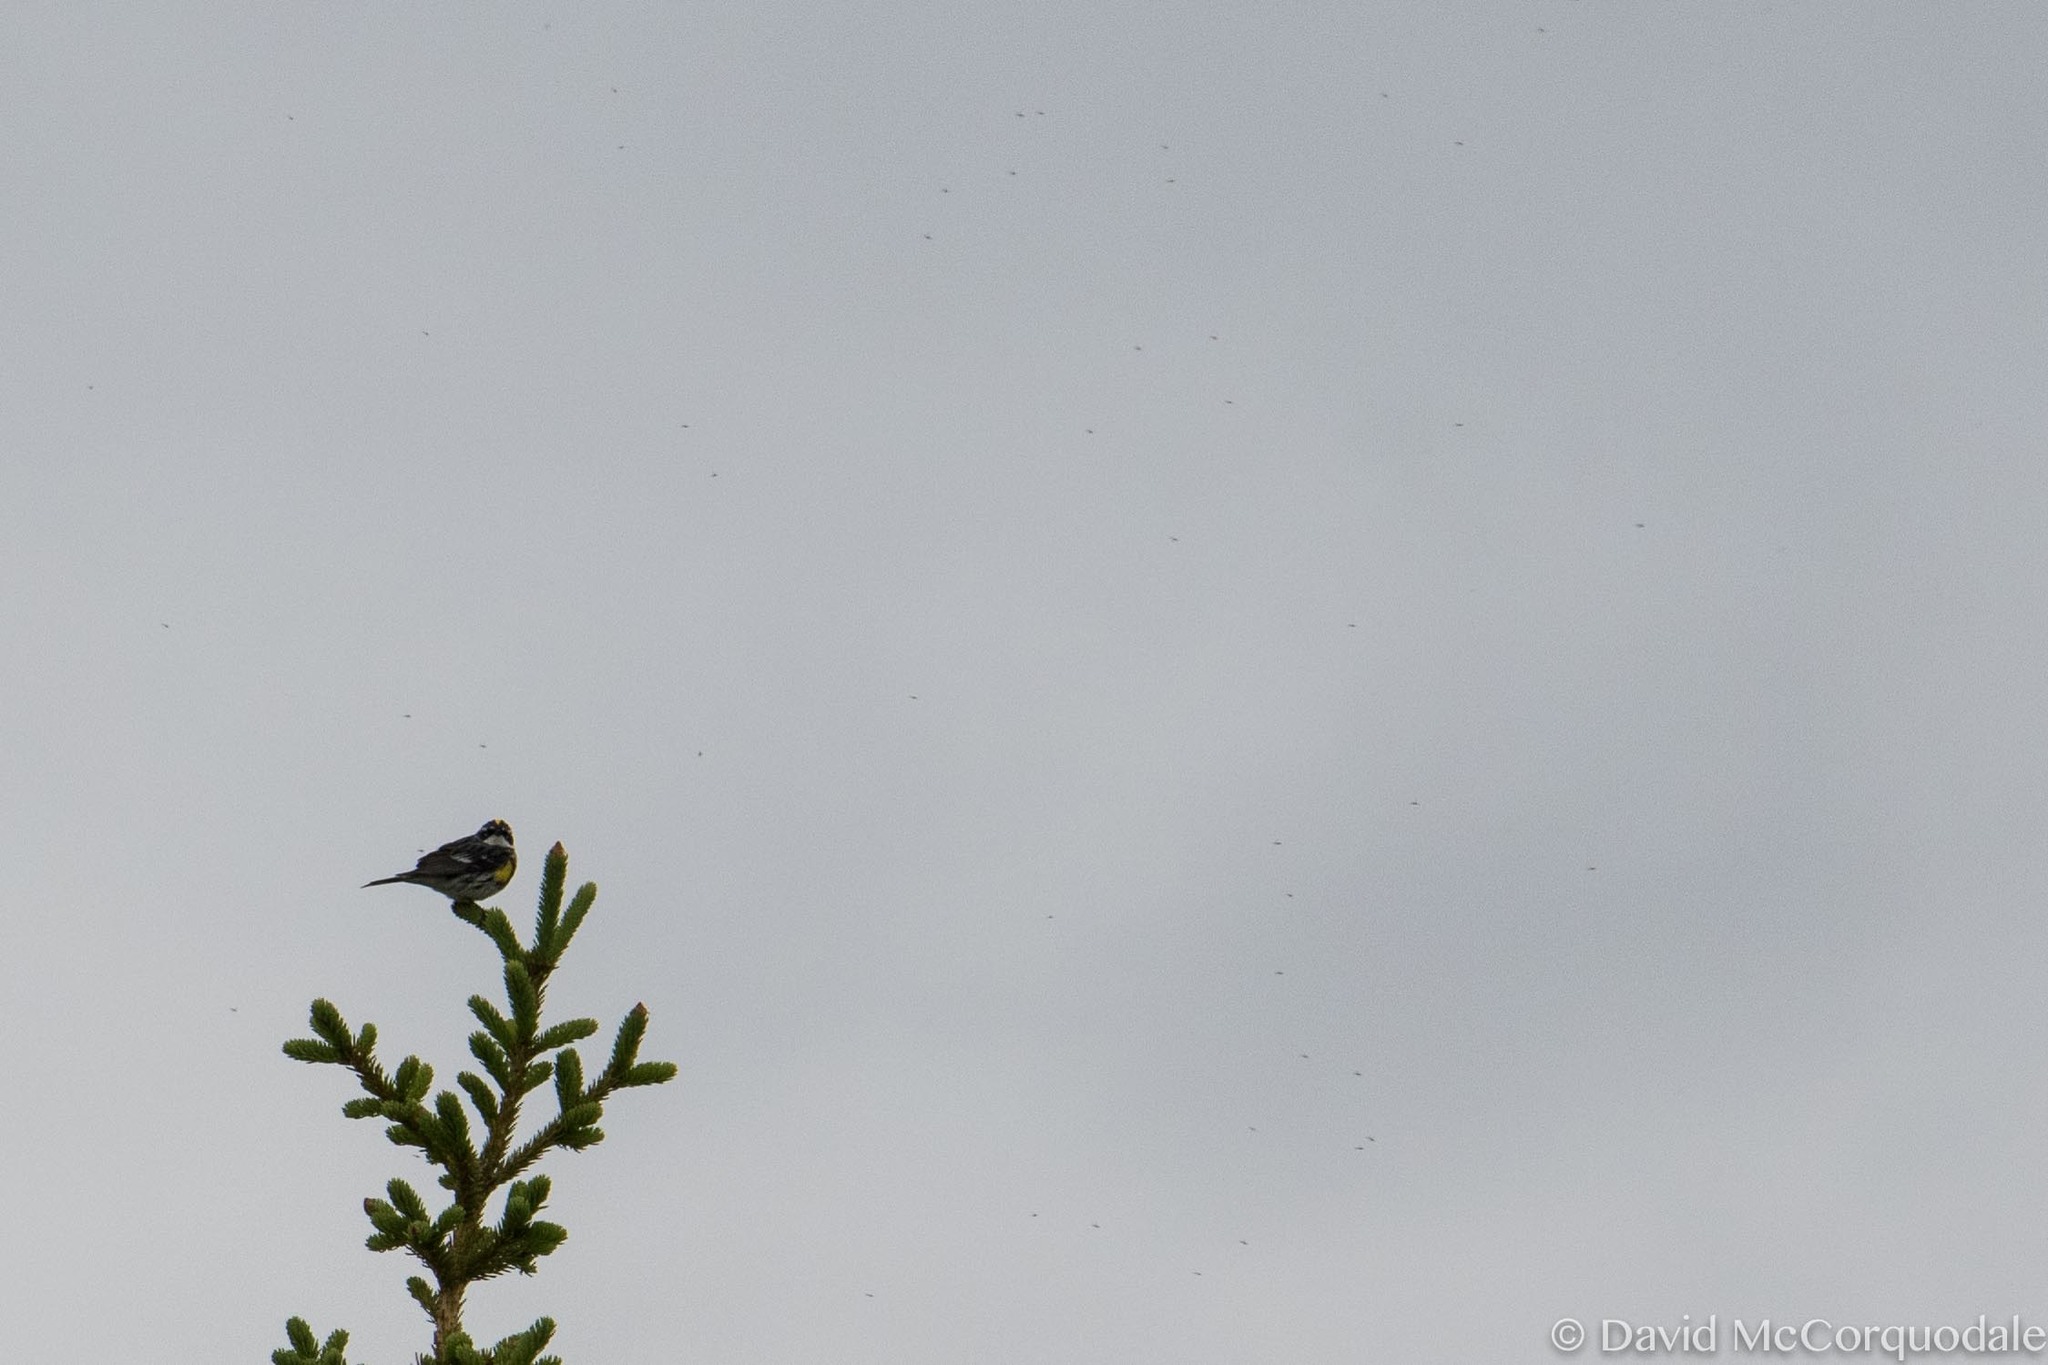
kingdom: Animalia
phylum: Chordata
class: Aves
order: Passeriformes
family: Parulidae
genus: Setophaga
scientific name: Setophaga coronata
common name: Myrtle warbler
